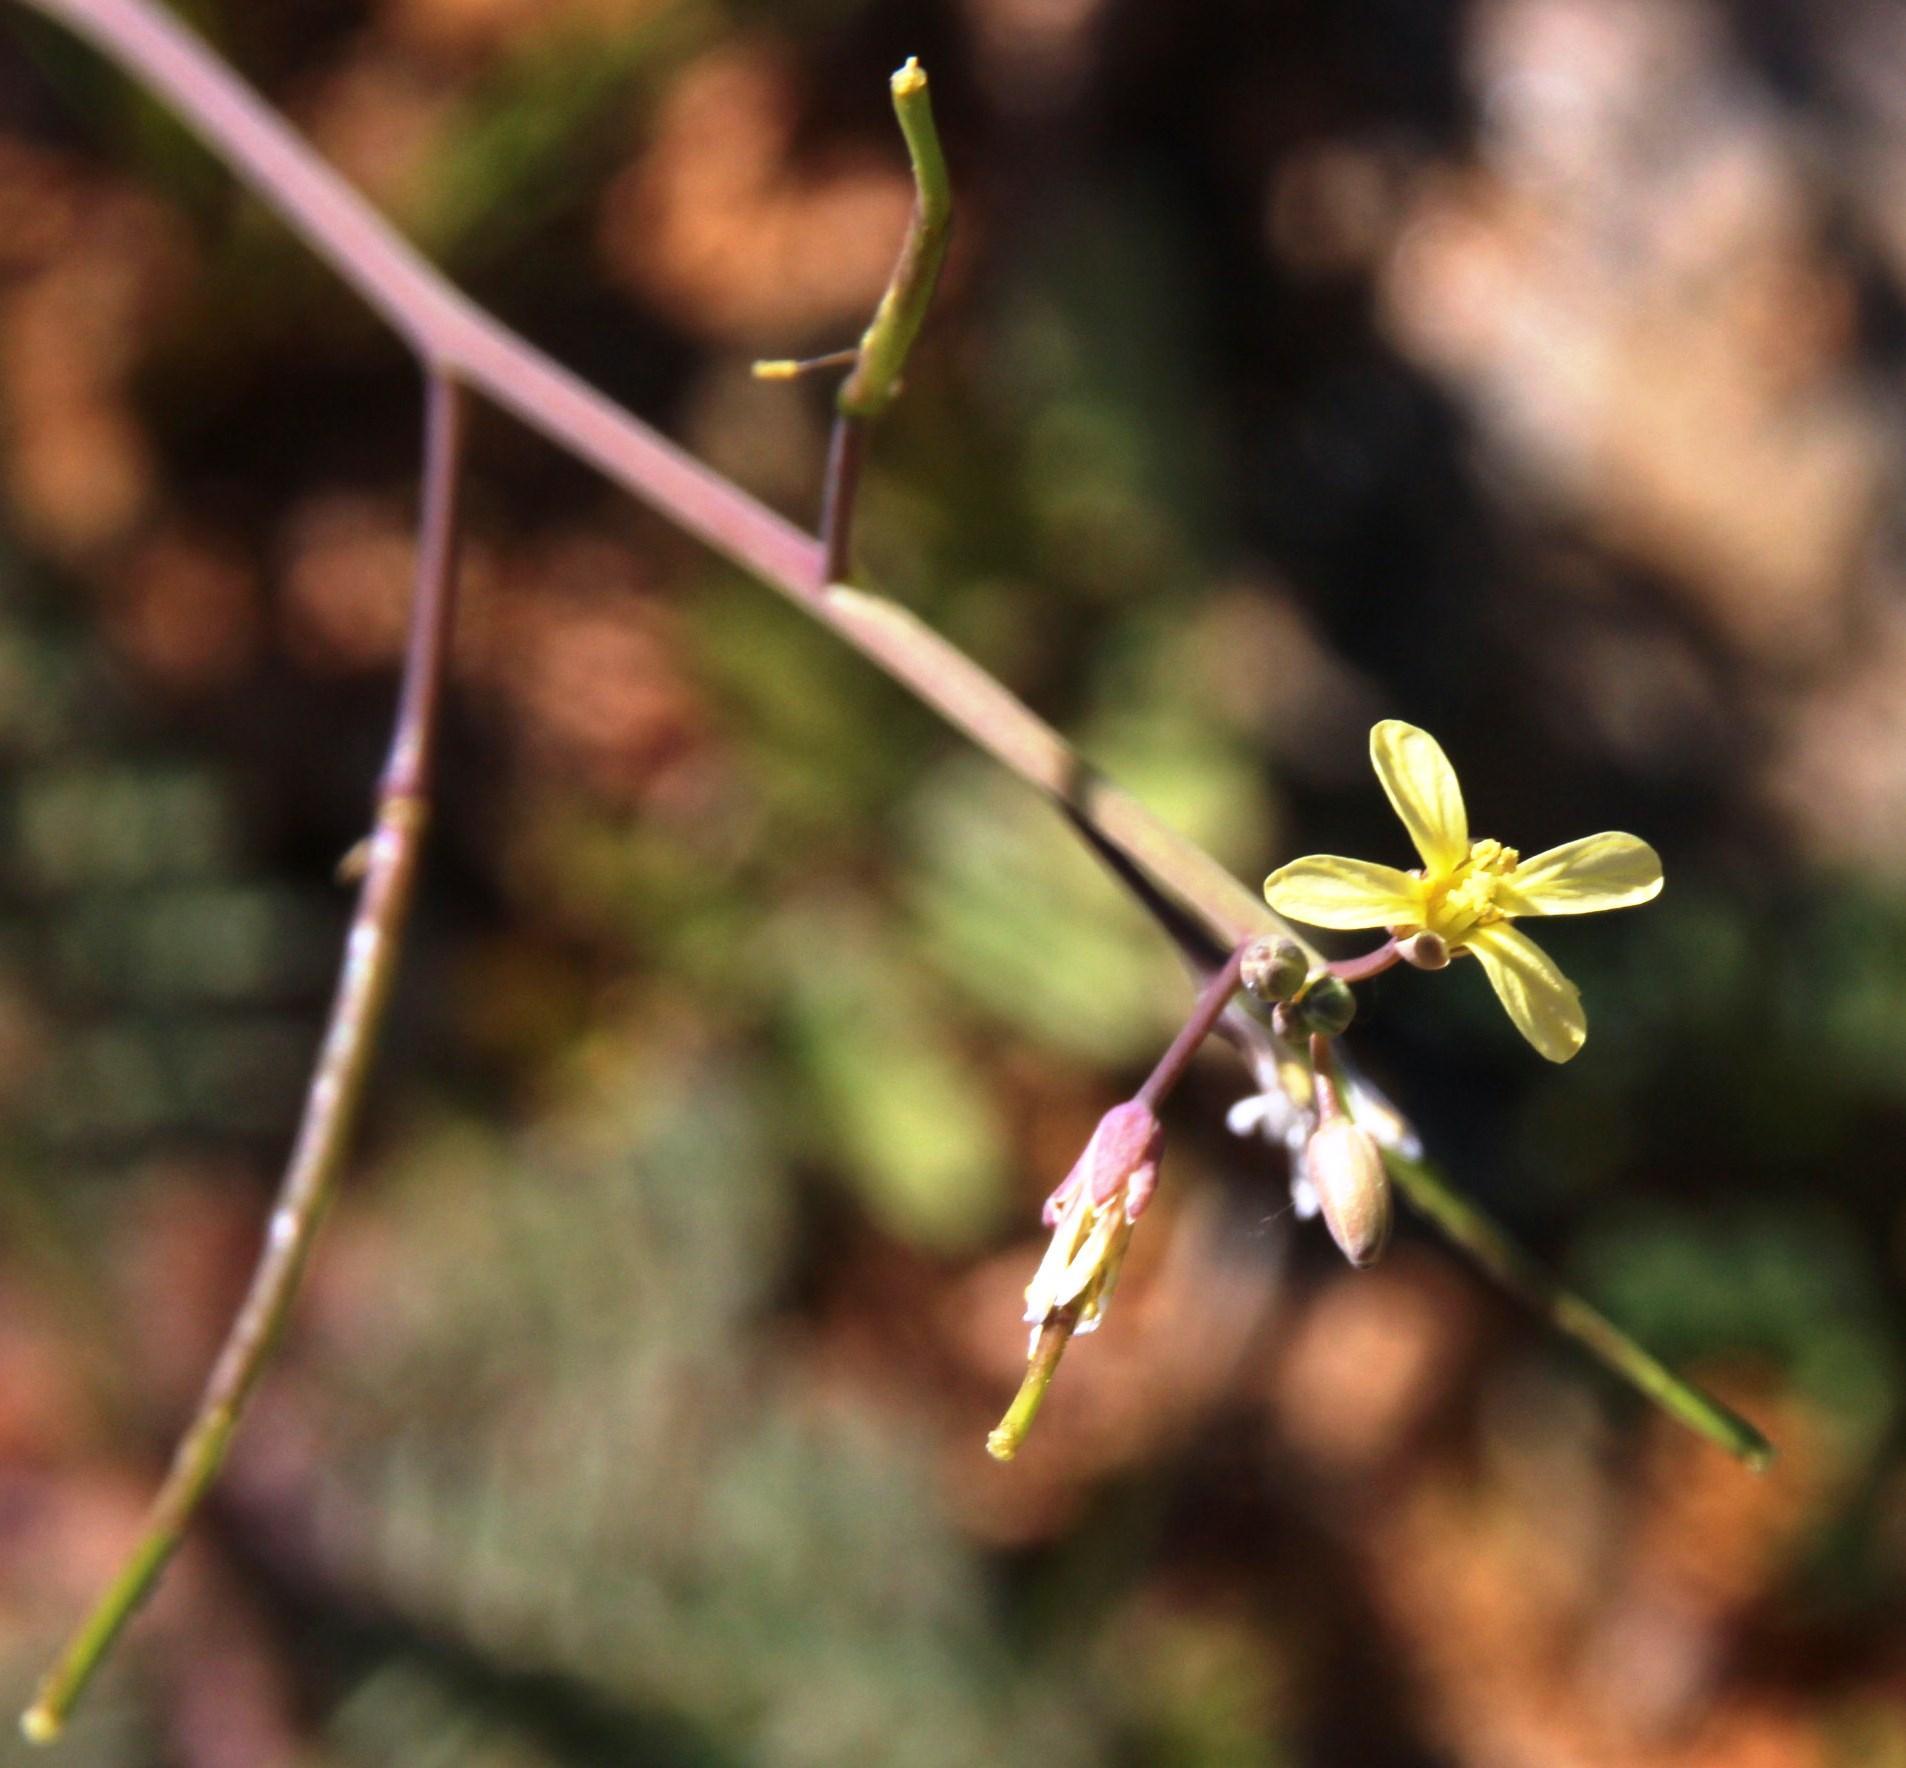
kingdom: Plantae
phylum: Tracheophyta
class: Magnoliopsida
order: Brassicales
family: Brassicaceae
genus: Brassica
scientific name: Brassica tournefortii
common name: Pale cabbage
